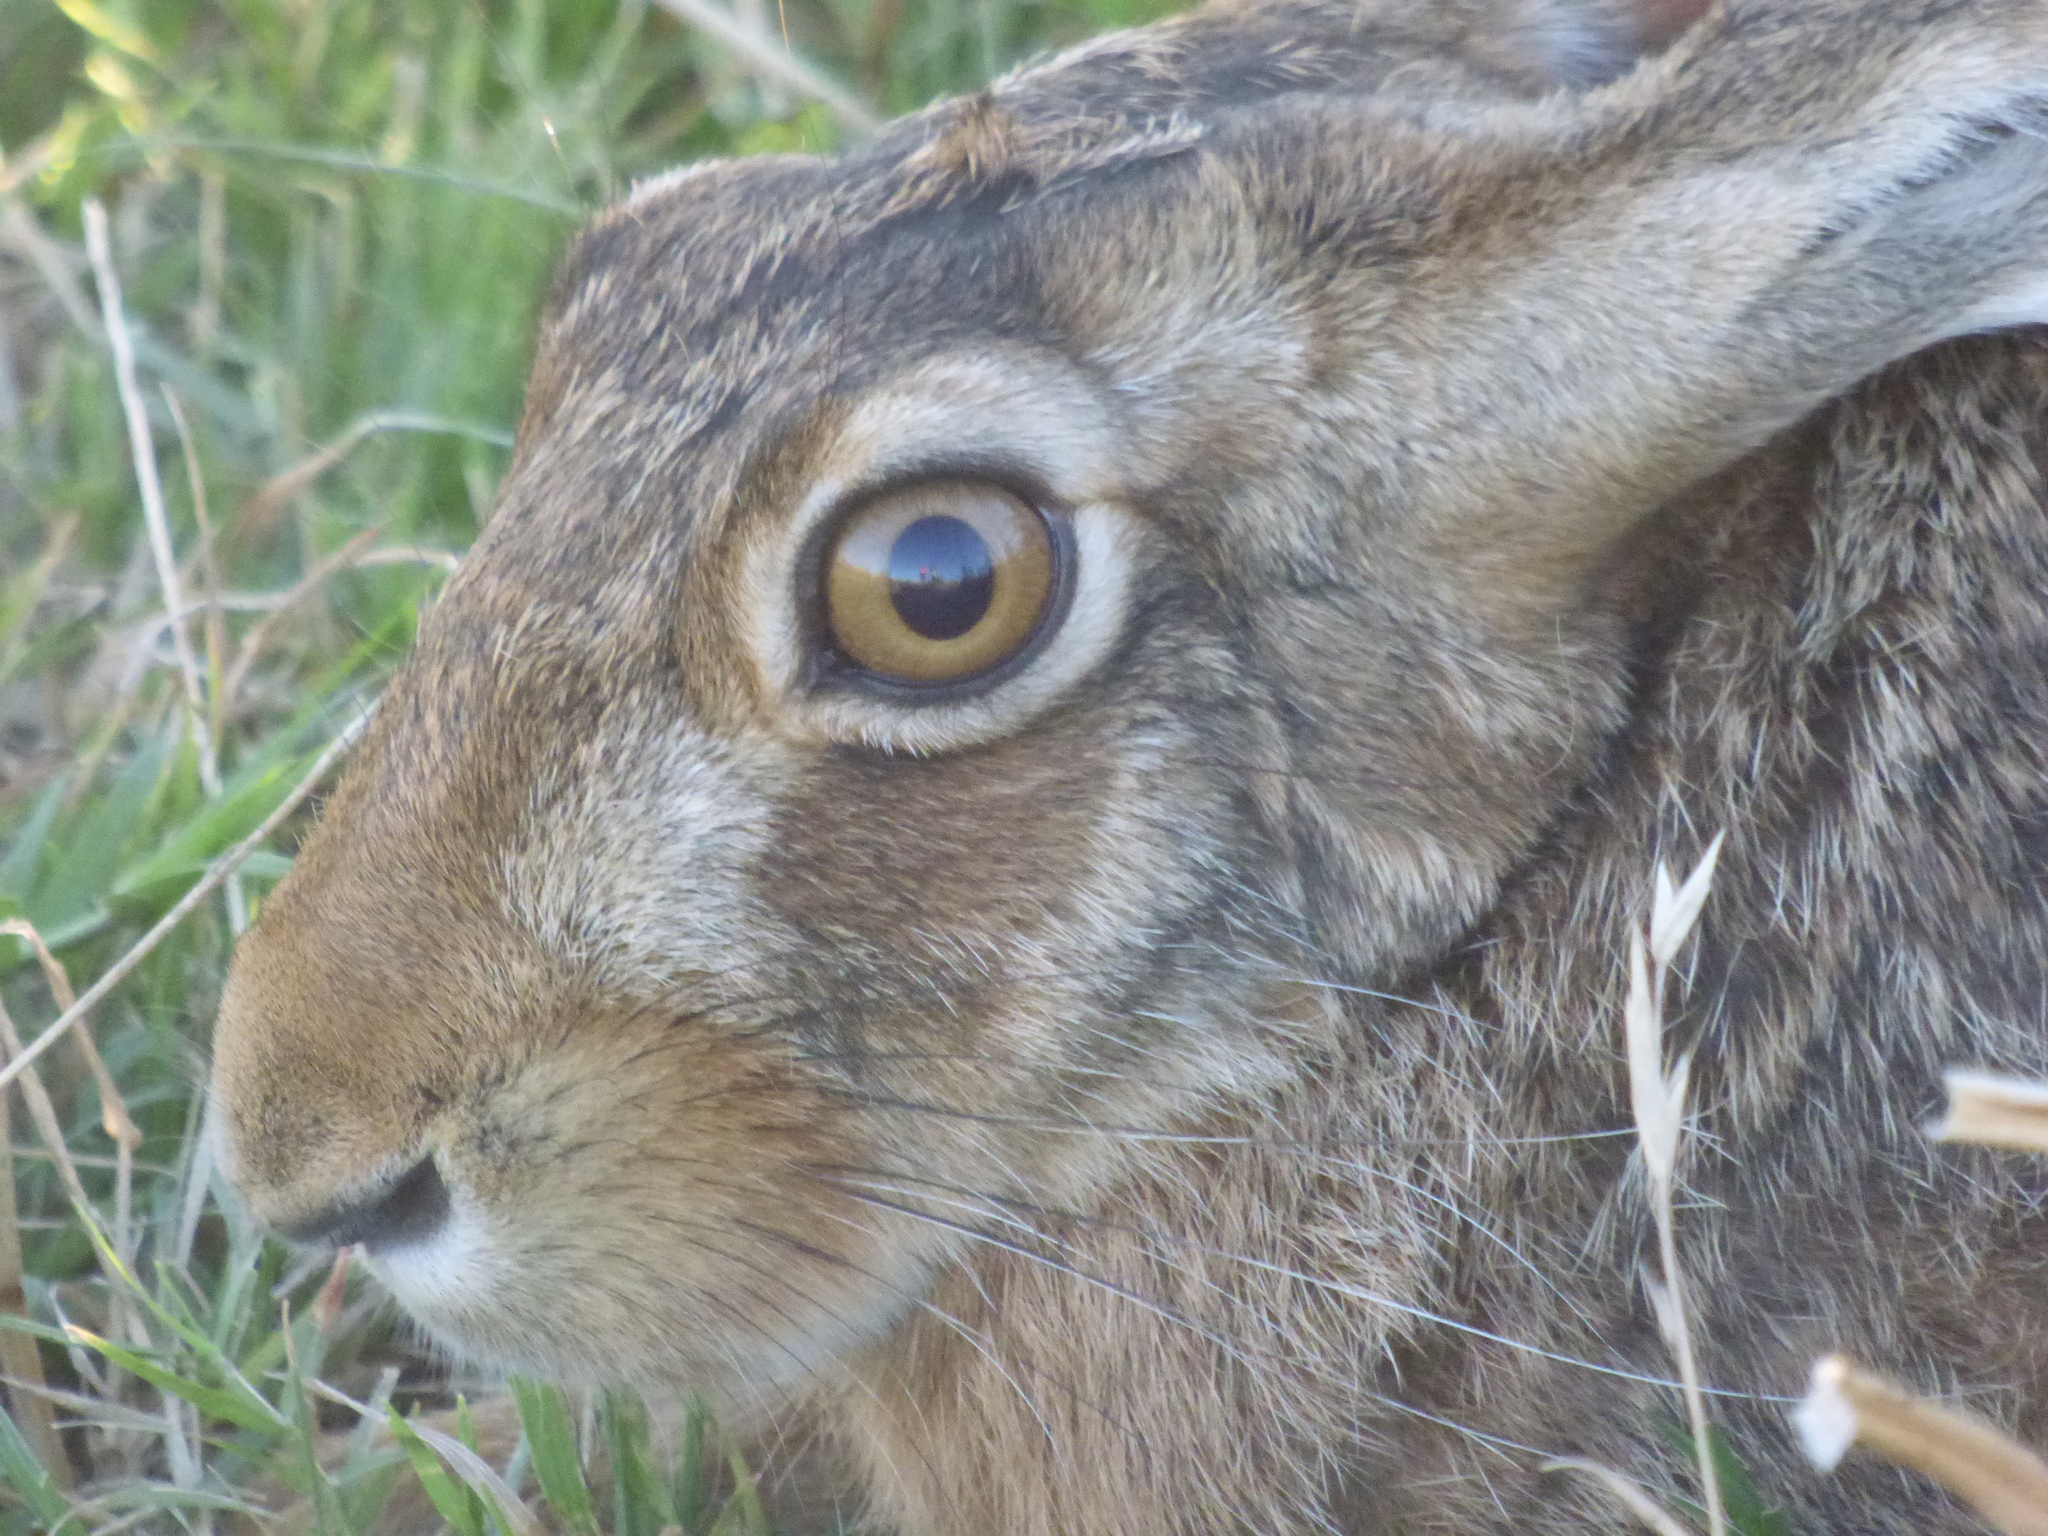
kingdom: Animalia
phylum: Chordata
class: Mammalia
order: Lagomorpha
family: Leporidae
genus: Lepus
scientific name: Lepus europaeus
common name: European hare
